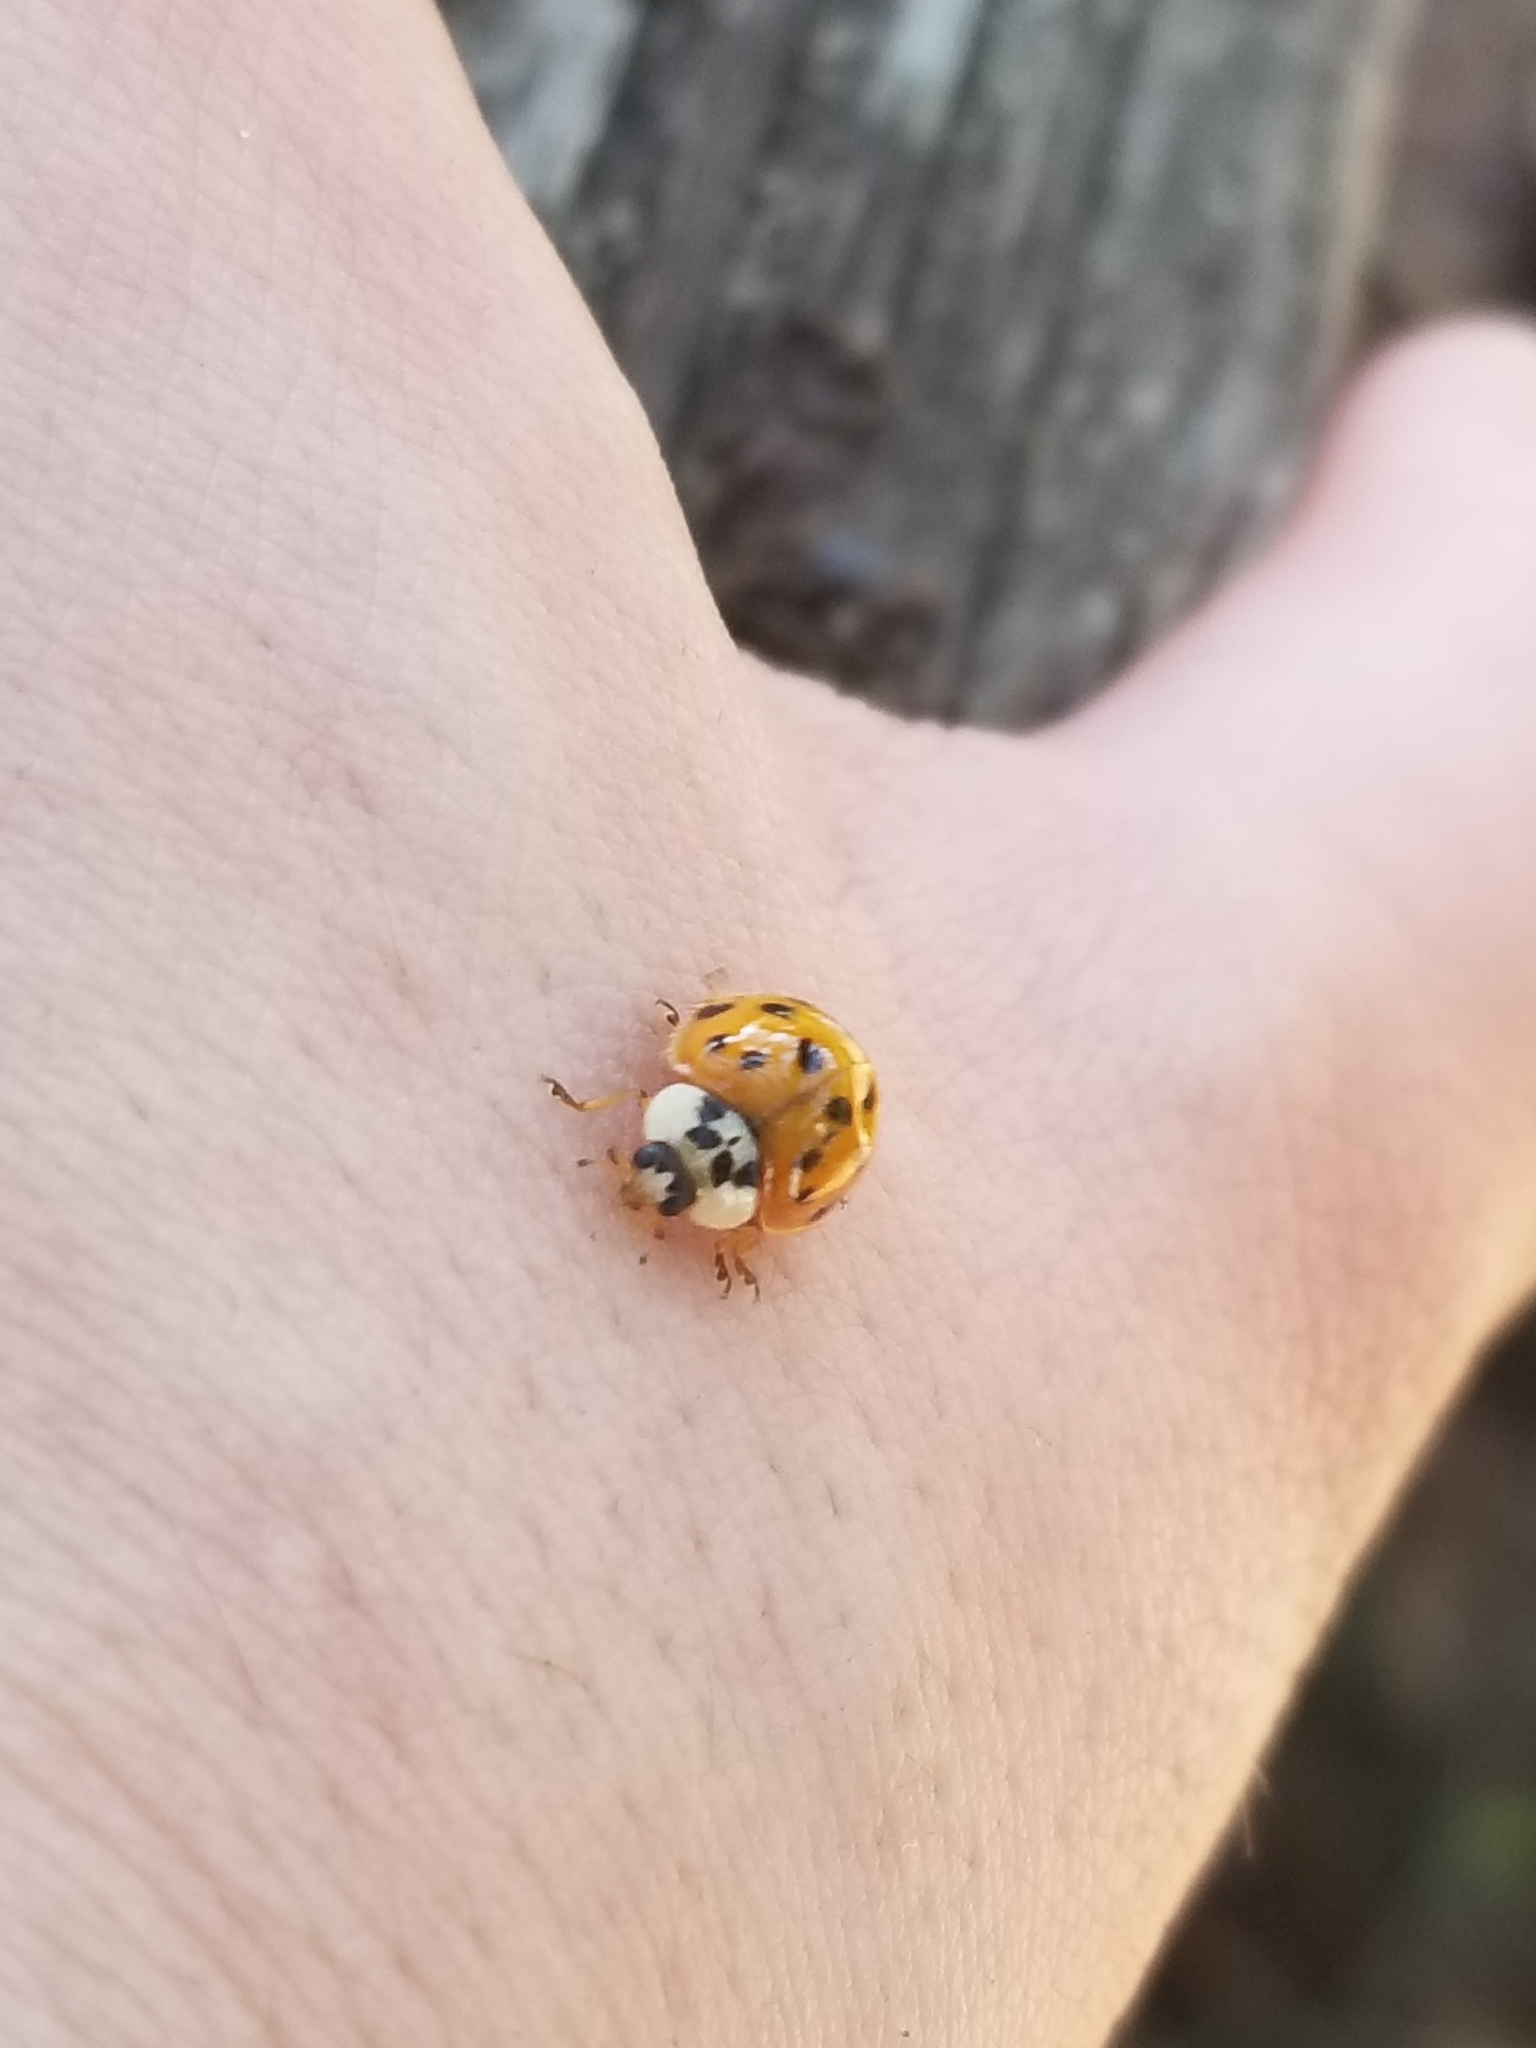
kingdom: Animalia
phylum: Arthropoda
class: Insecta
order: Coleoptera
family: Coccinellidae
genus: Harmonia
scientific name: Harmonia axyridis
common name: Harlequin ladybird
